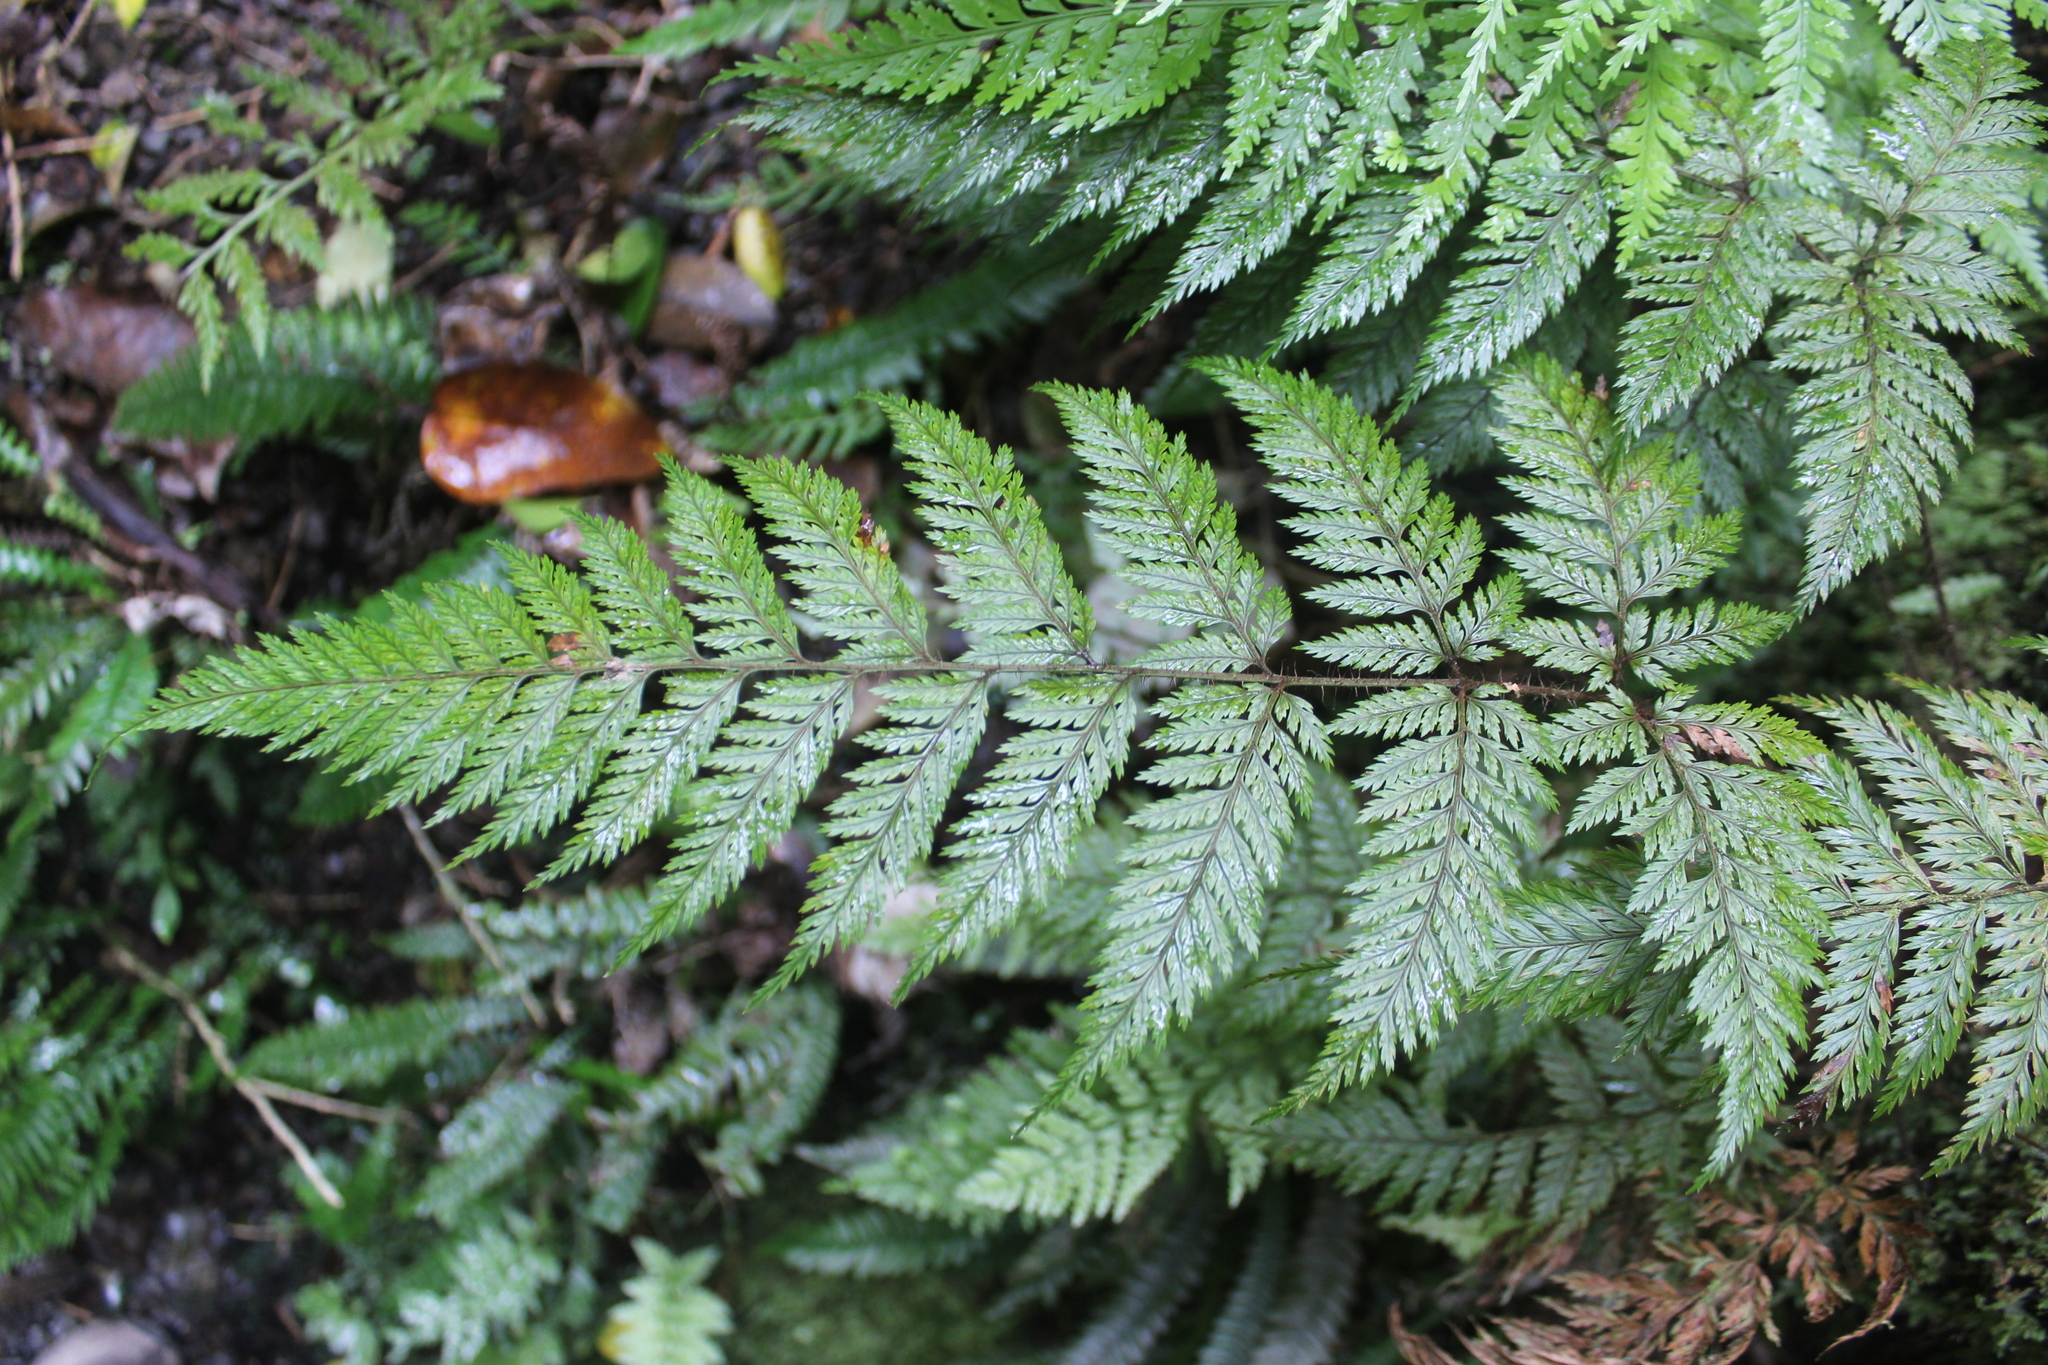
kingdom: Plantae
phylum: Tracheophyta
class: Polypodiopsida
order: Polypodiales
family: Dryopteridaceae
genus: Lastreopsis
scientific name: Lastreopsis hispida
